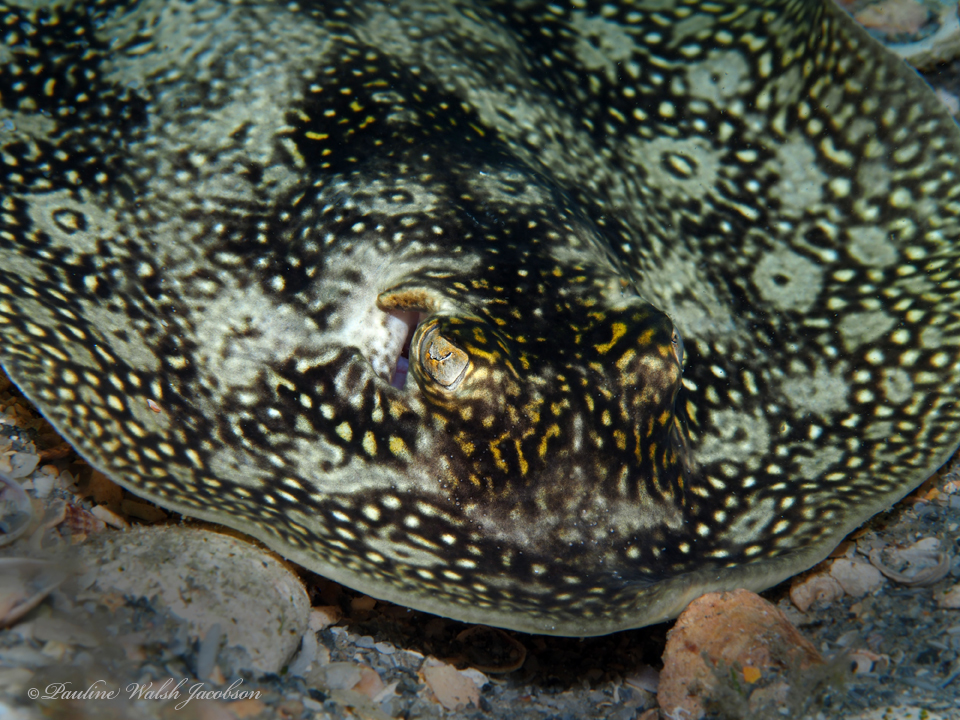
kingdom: Animalia
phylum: Chordata
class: Elasmobranchii
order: Myliobatiformes
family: Urotrygonidae
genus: Urobatis
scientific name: Urobatis jamaicensis
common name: Yellow stingray
